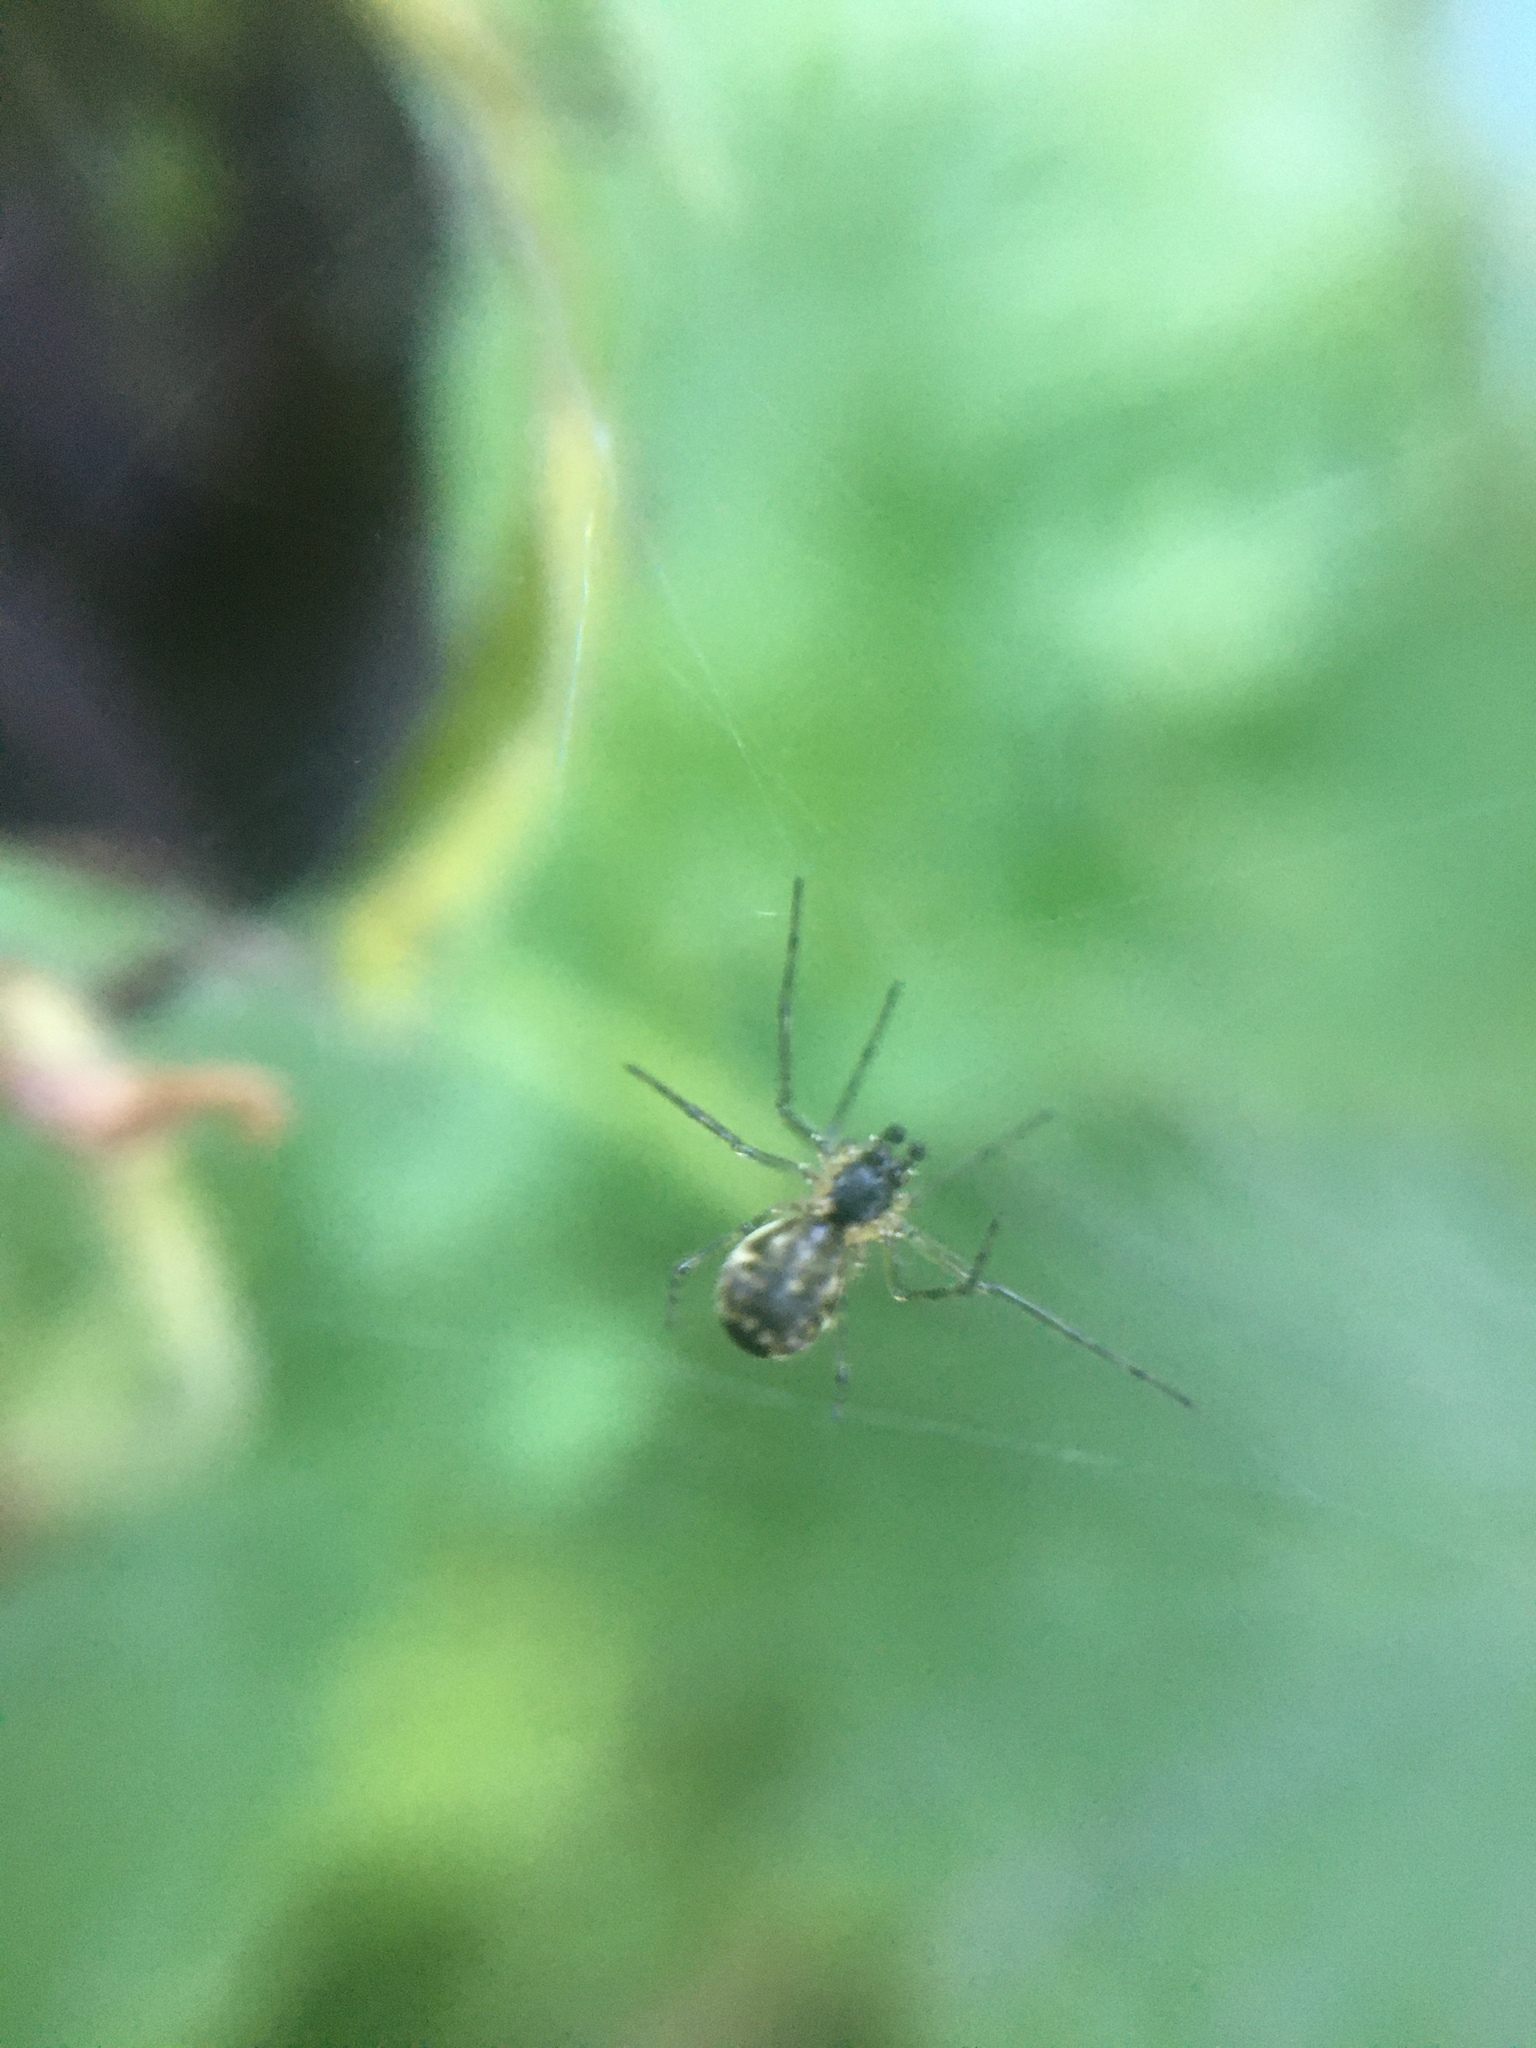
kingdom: Animalia
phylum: Arthropoda
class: Arachnida
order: Araneae
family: Linyphiidae
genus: Neriene
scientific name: Neriene emphana
